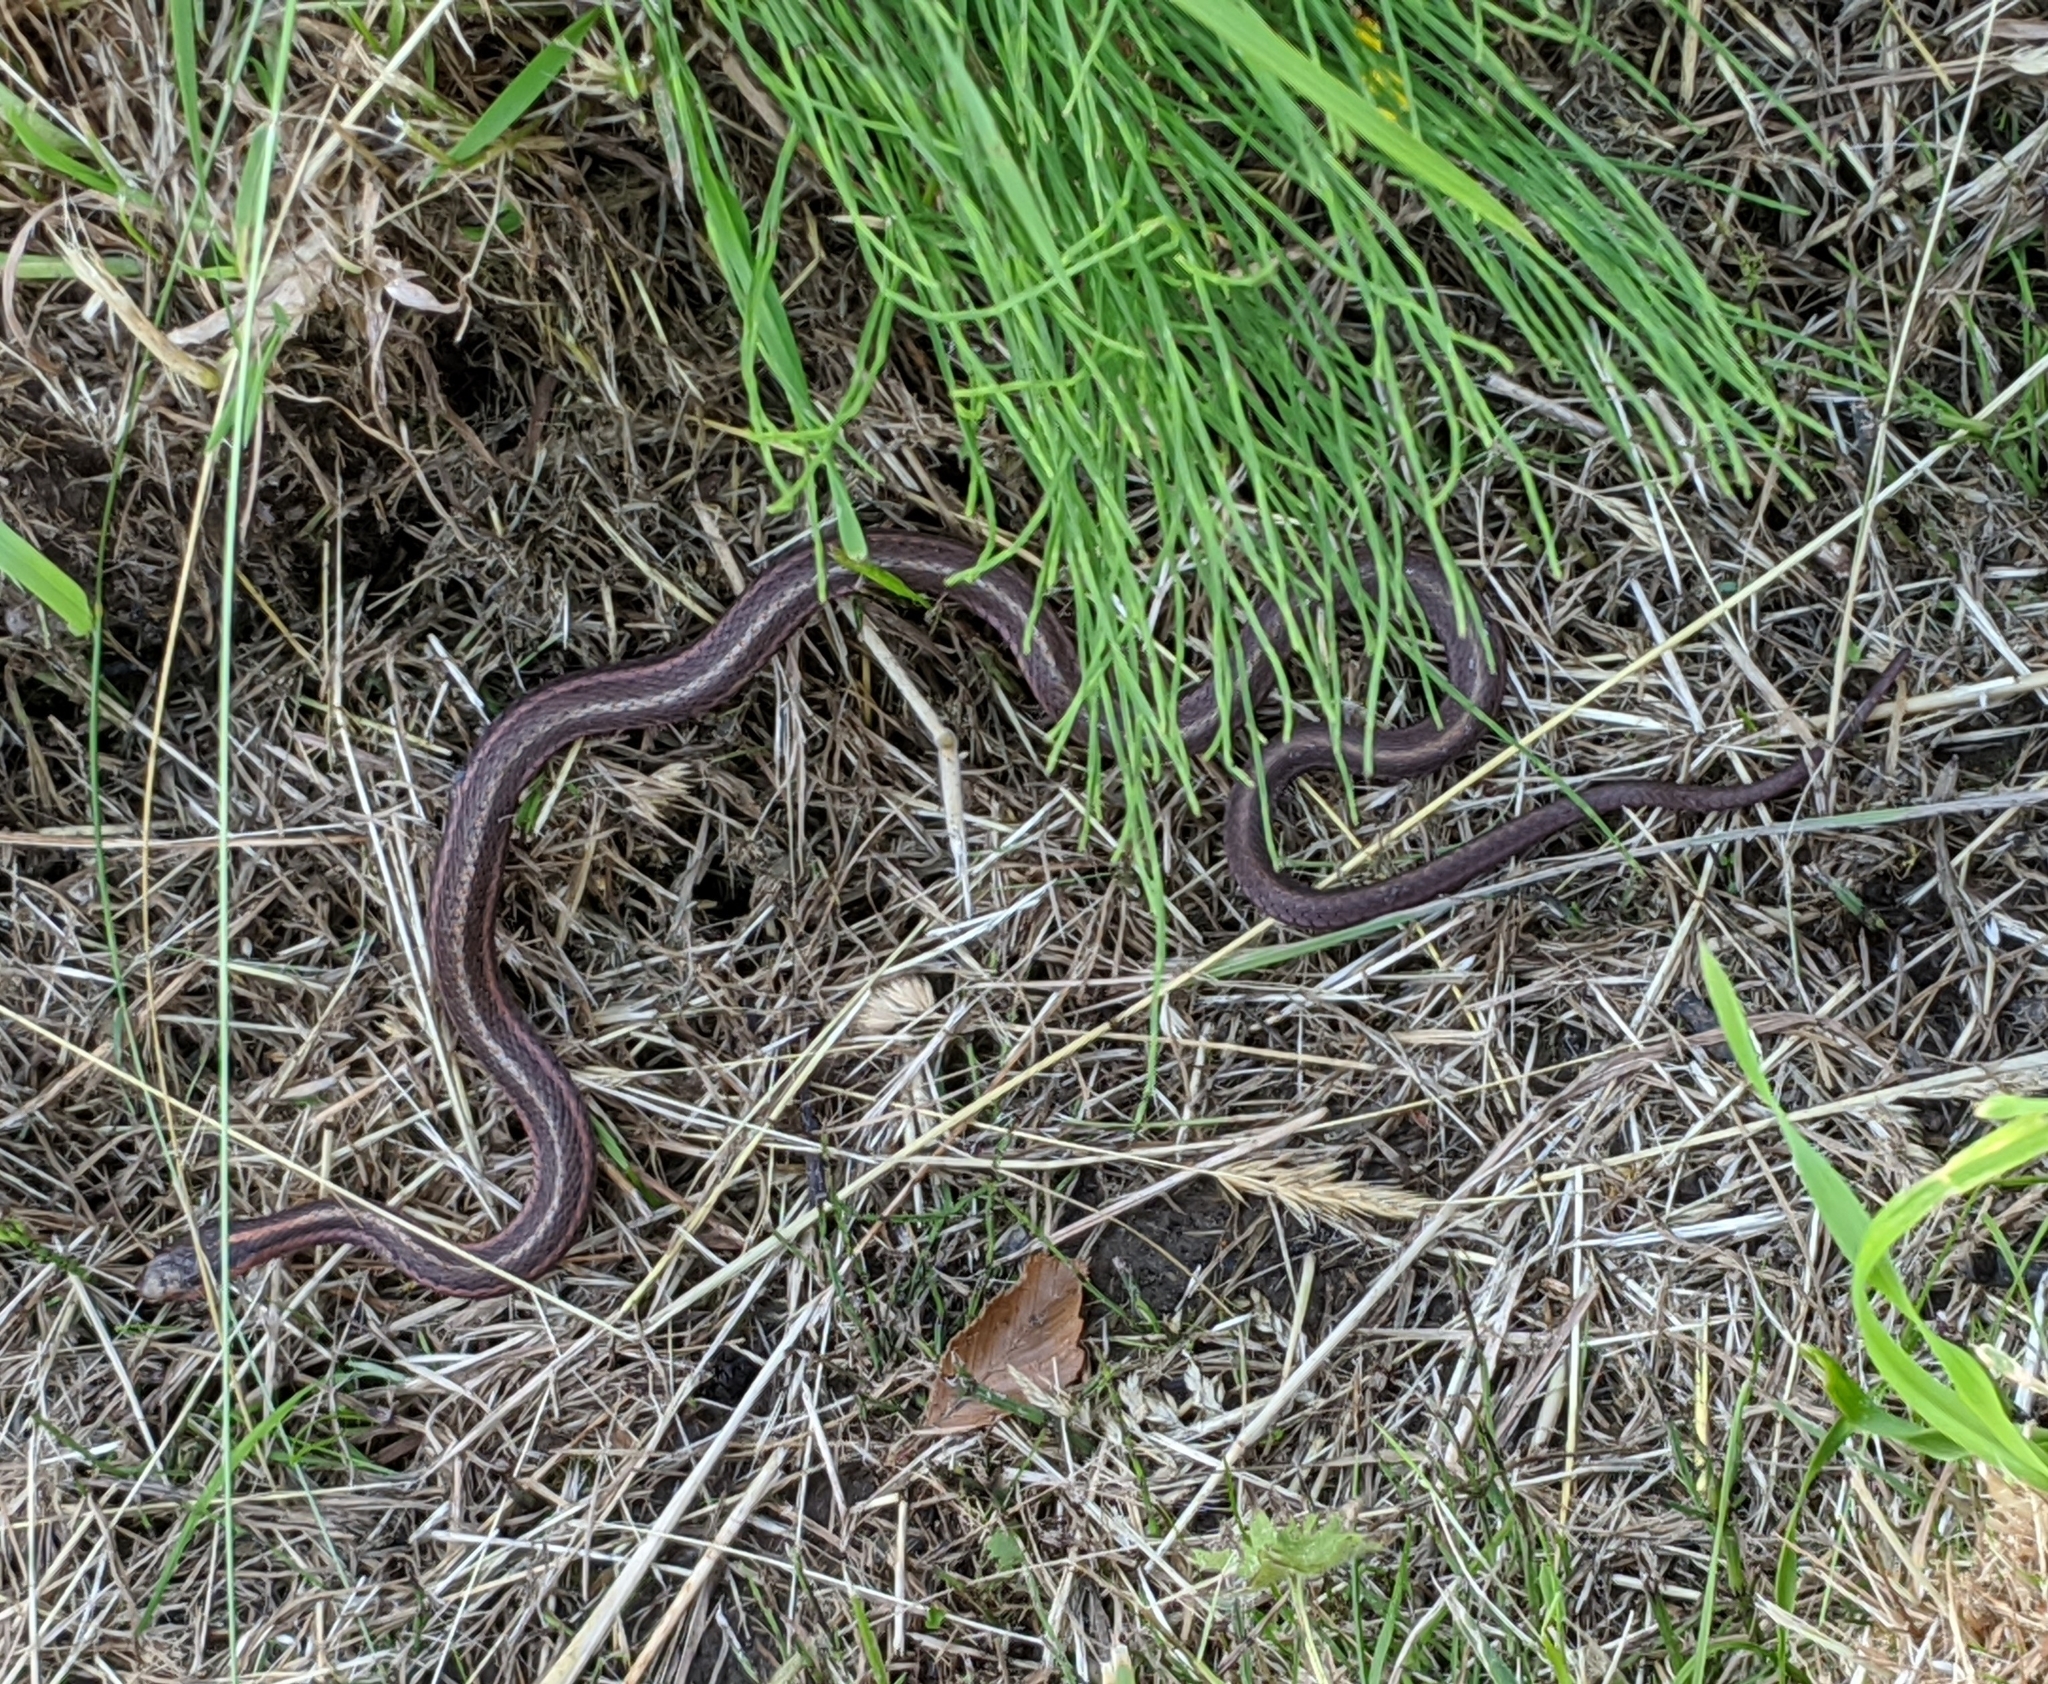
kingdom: Animalia
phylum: Chordata
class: Squamata
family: Colubridae
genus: Thamnophis
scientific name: Thamnophis ordinoides
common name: Northwestern garter snake
